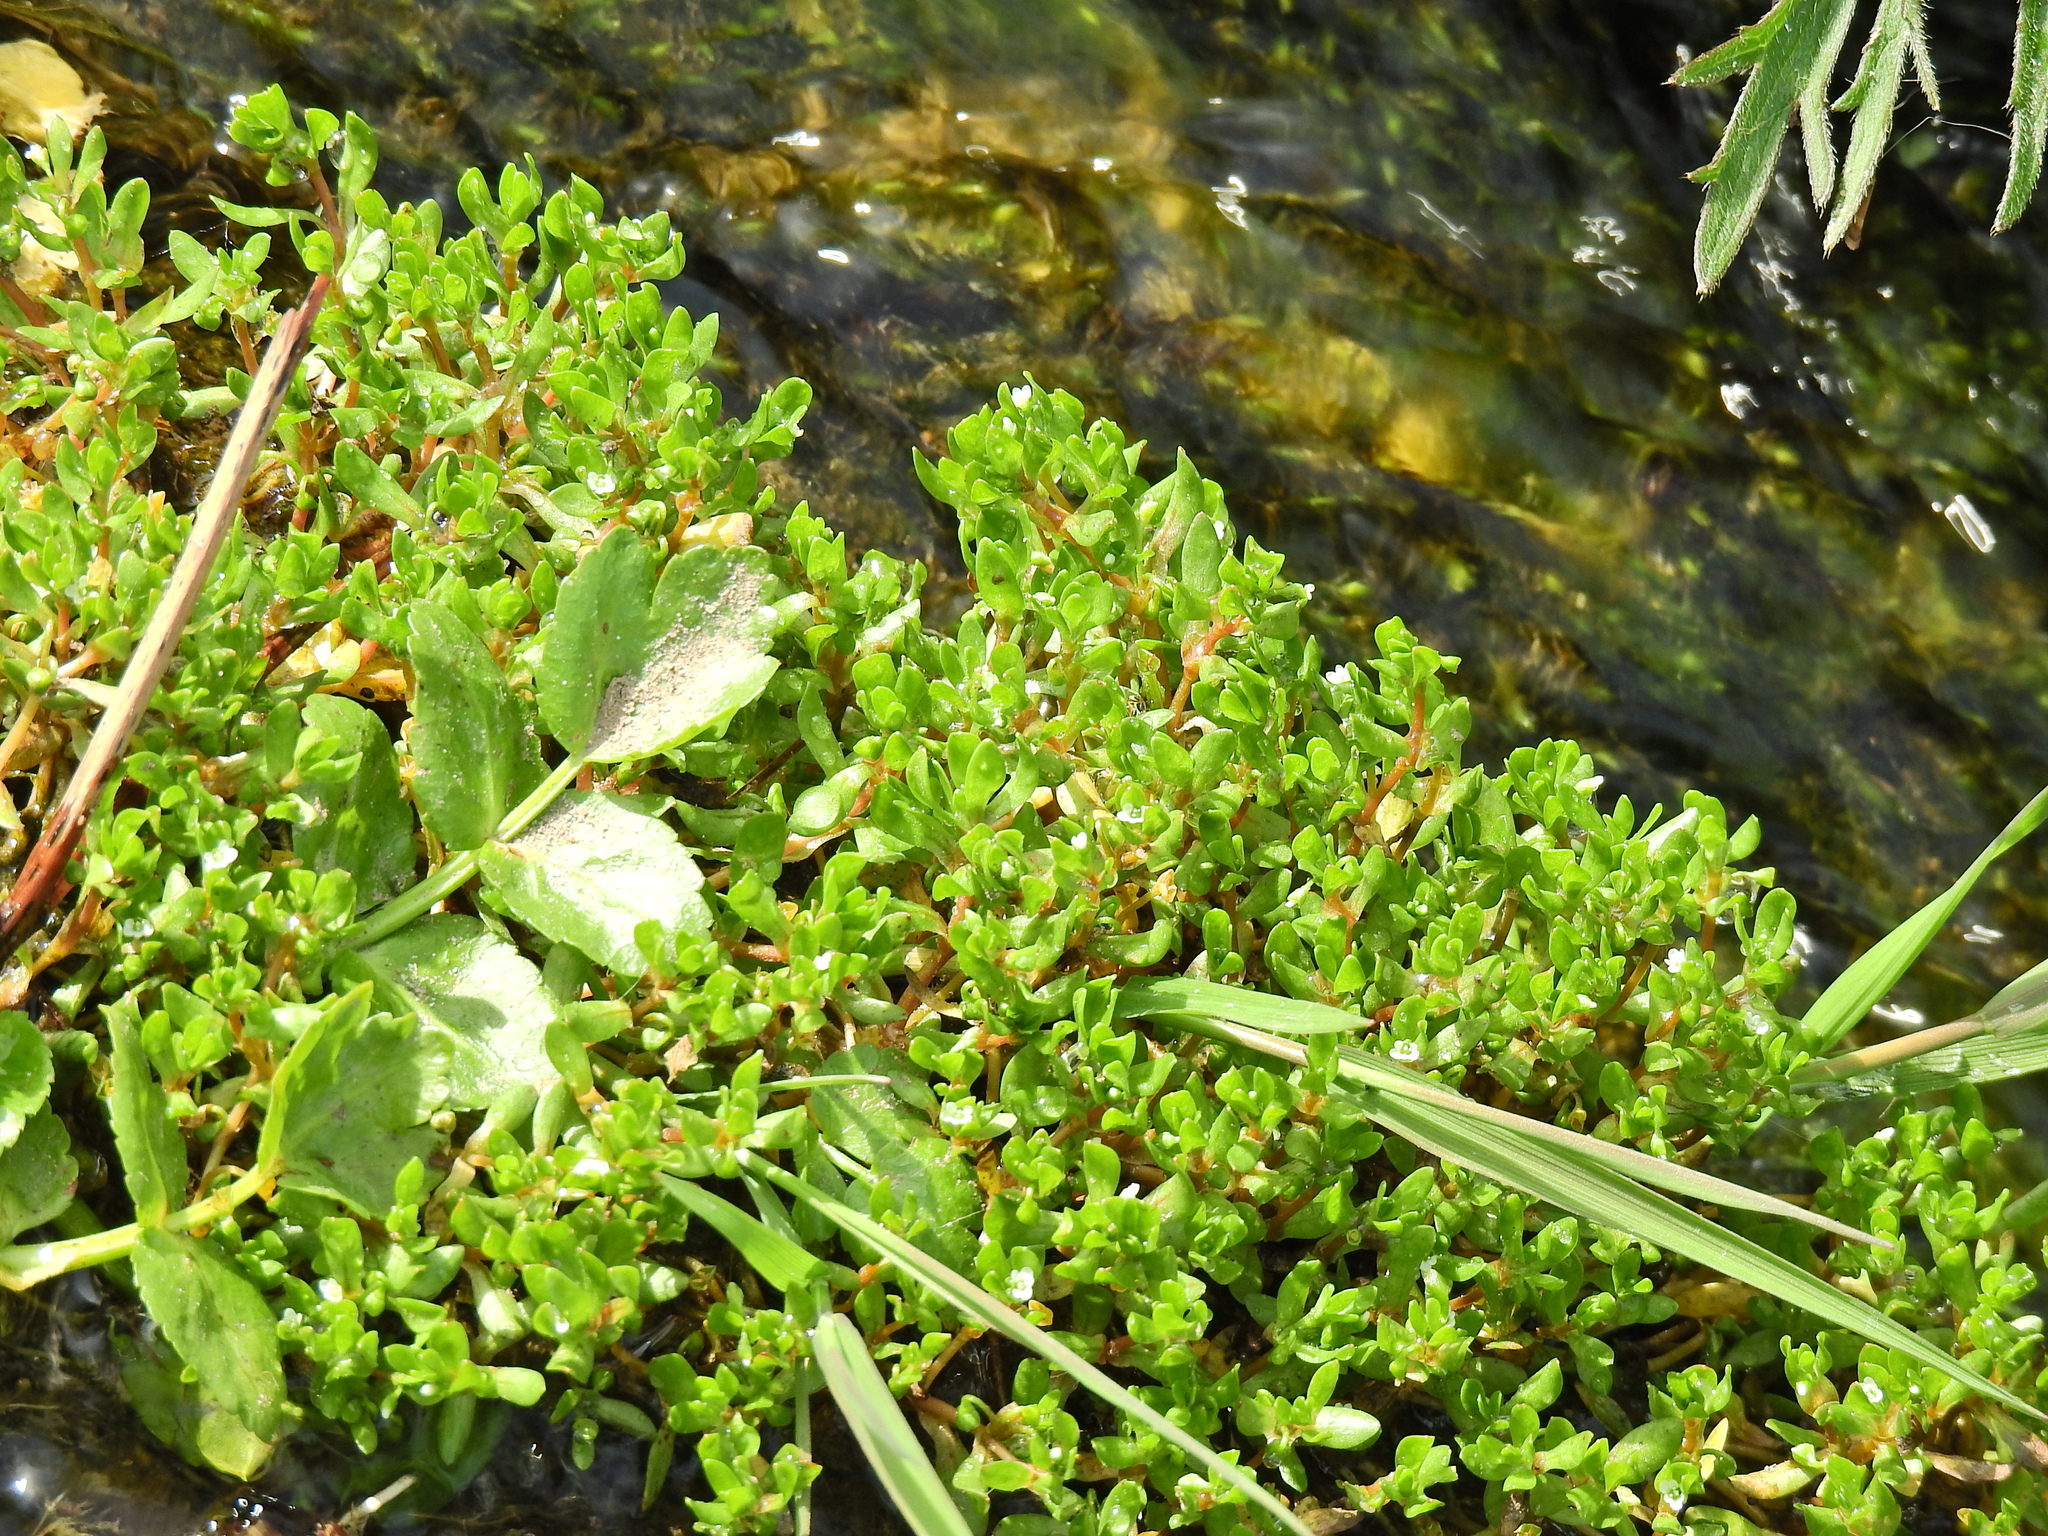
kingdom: Plantae
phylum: Tracheophyta
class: Magnoliopsida
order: Ericales
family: Primulaceae
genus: Lysimachia
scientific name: Lysimachia maritima
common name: Sea milkwort
